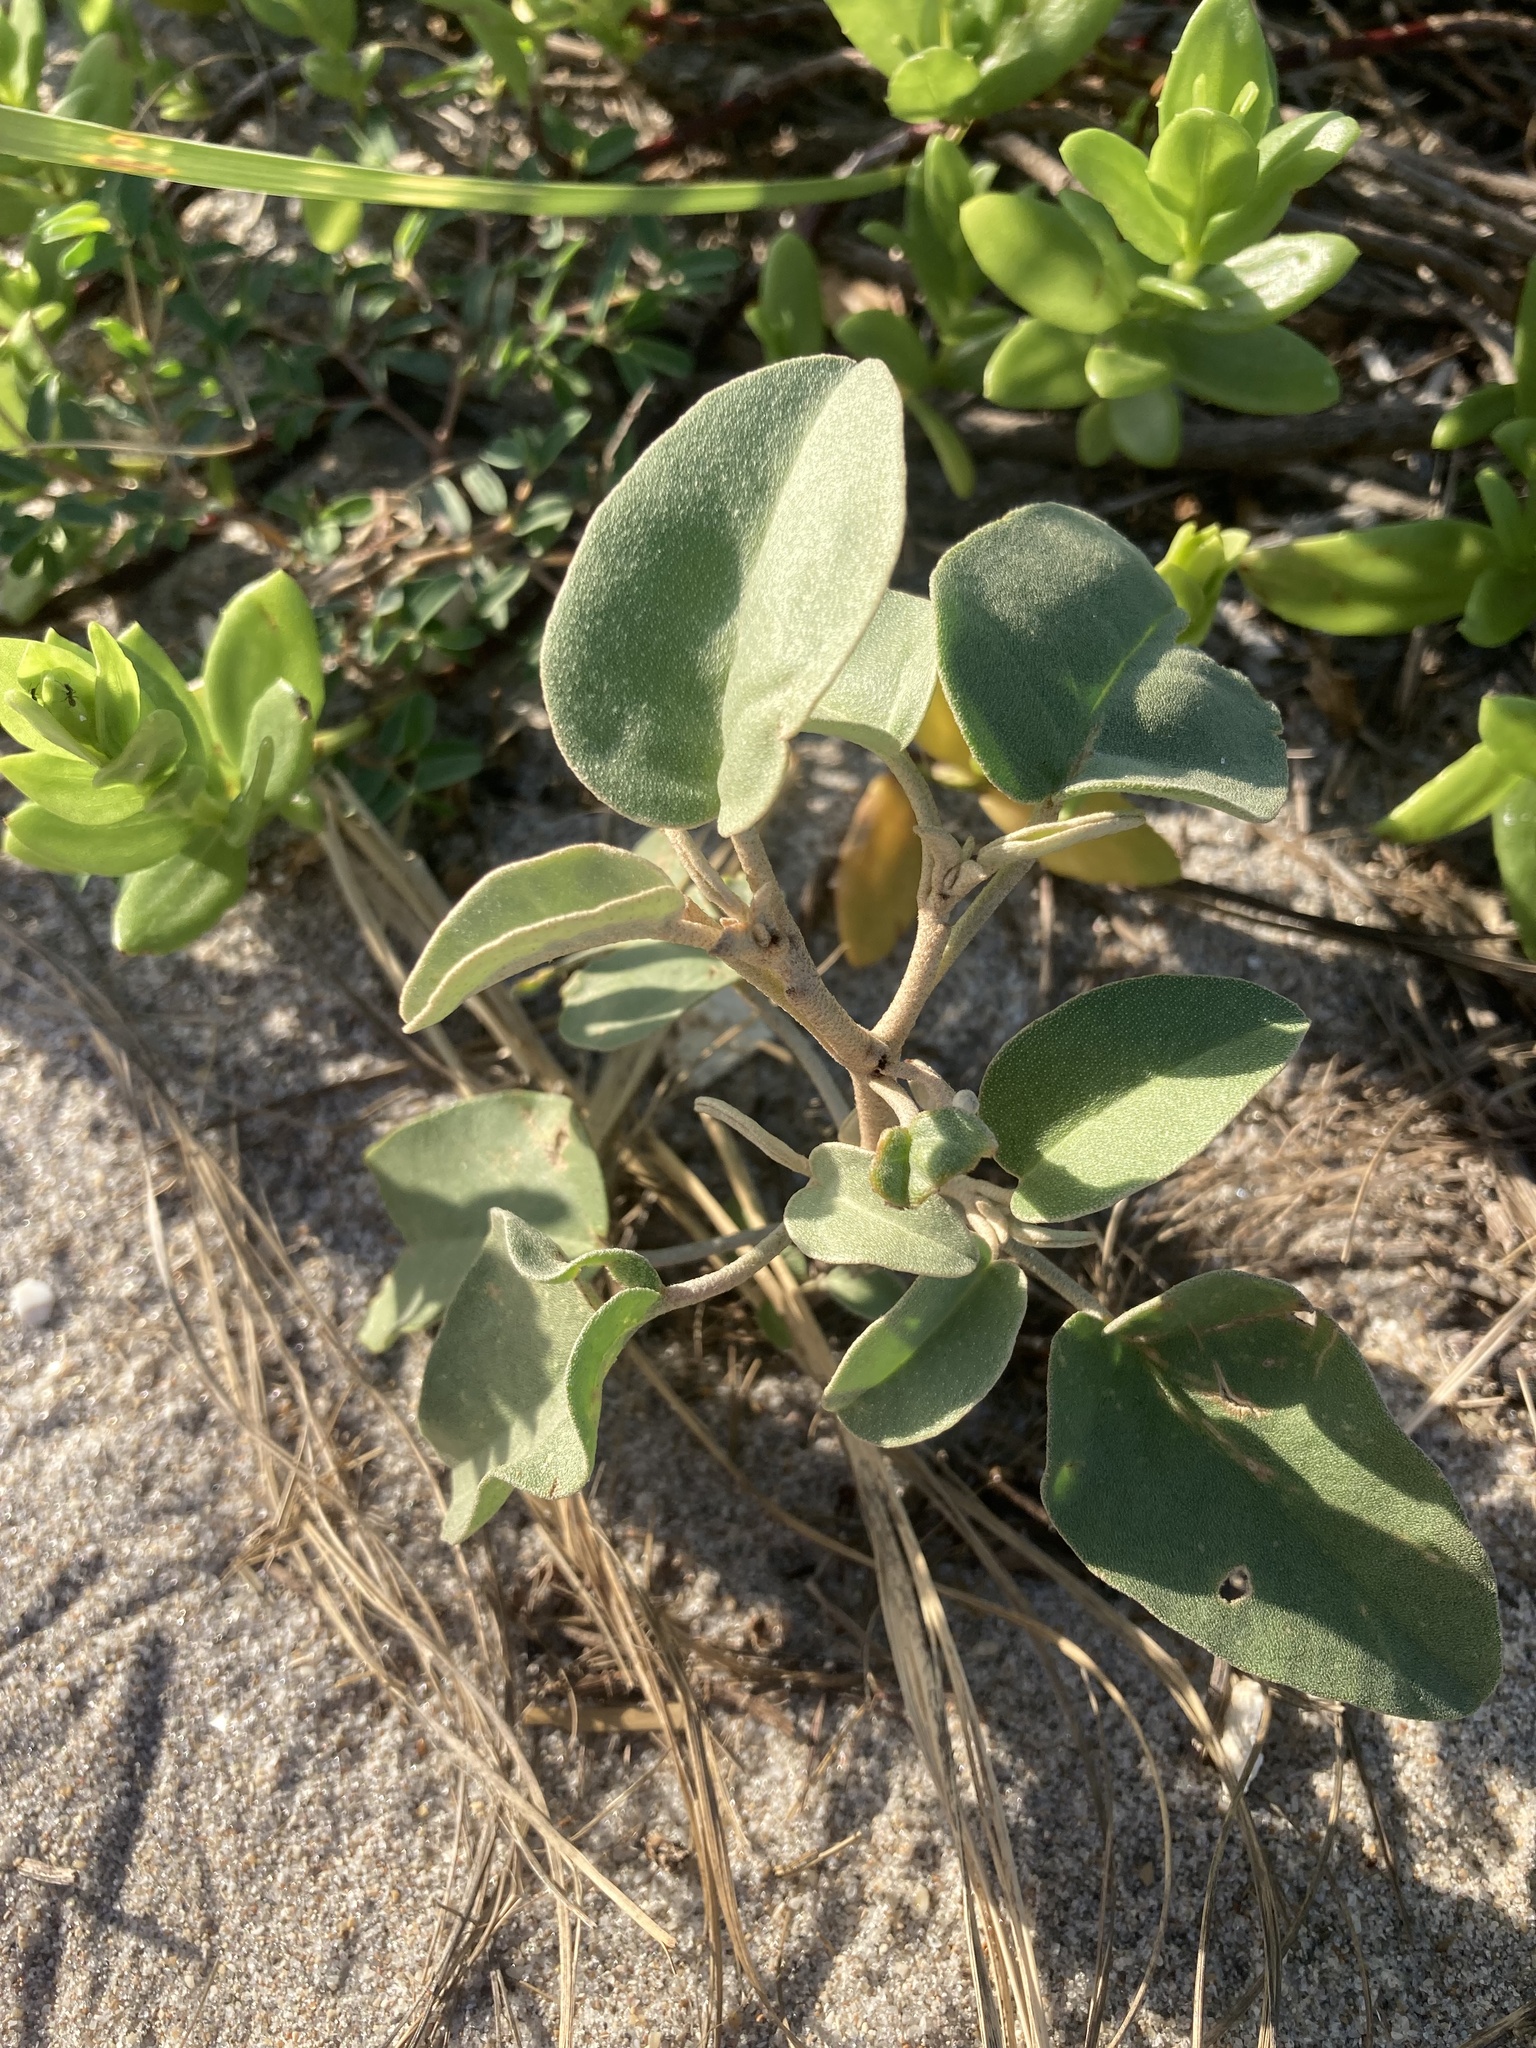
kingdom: Plantae
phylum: Tracheophyta
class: Magnoliopsida
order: Malpighiales
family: Euphorbiaceae
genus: Croton
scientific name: Croton punctatus
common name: Beach-tea
